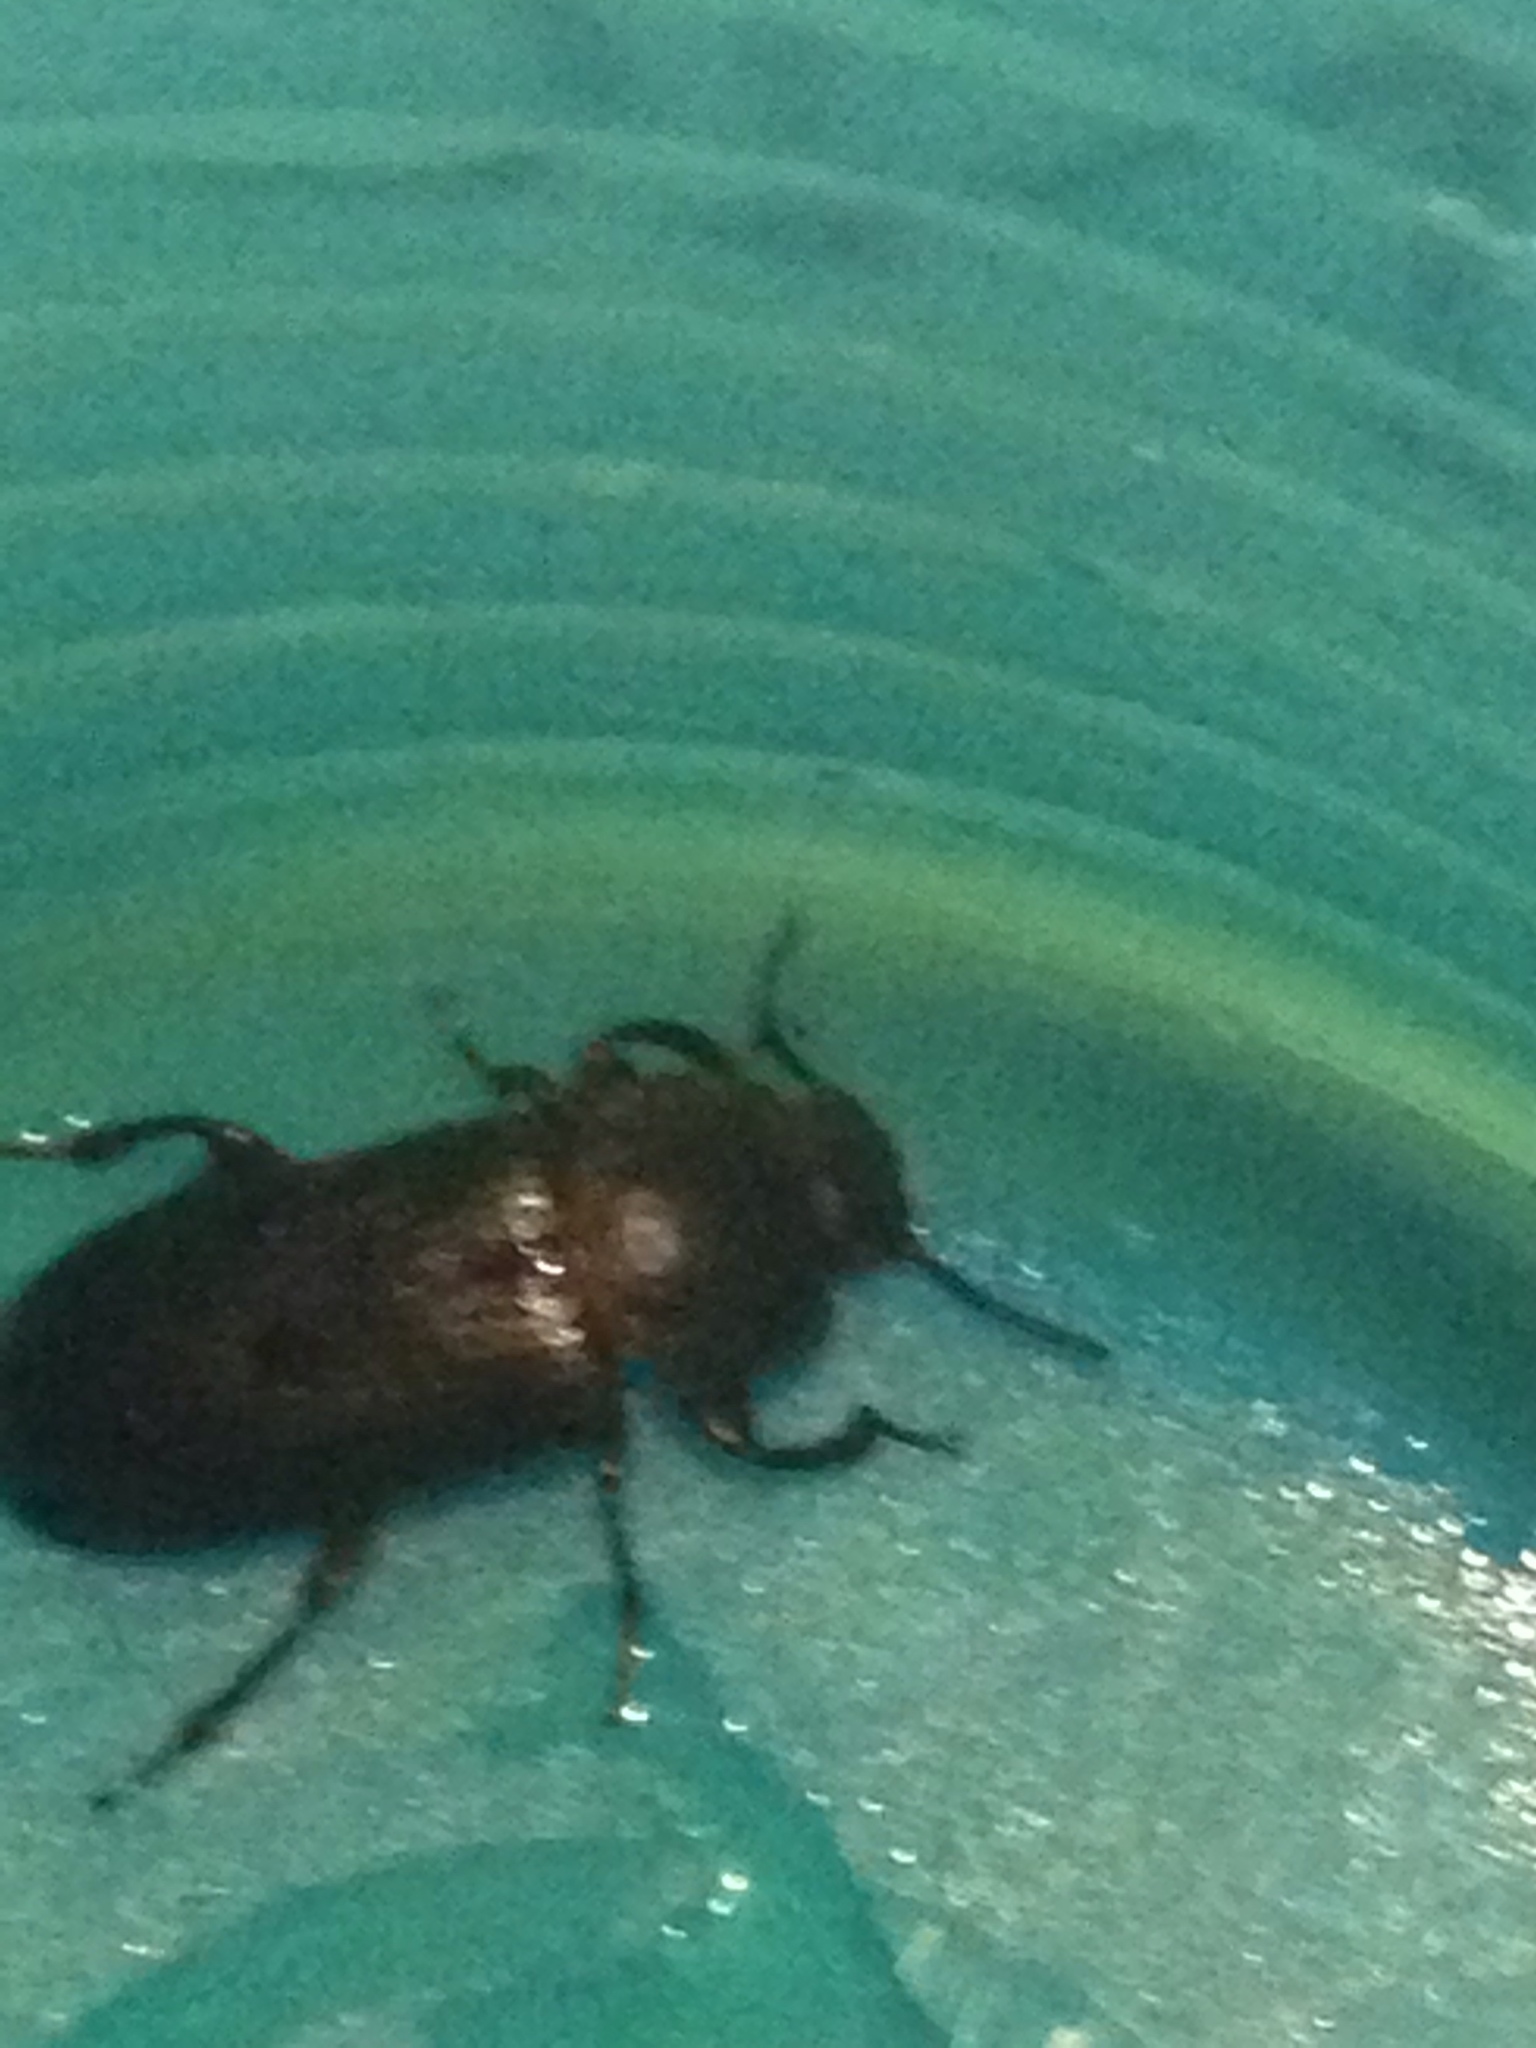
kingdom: Animalia
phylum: Arthropoda
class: Insecta
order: Coleoptera
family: Tenebrionidae
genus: Tenebrio
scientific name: Tenebrio molitor
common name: Hardback beetle
